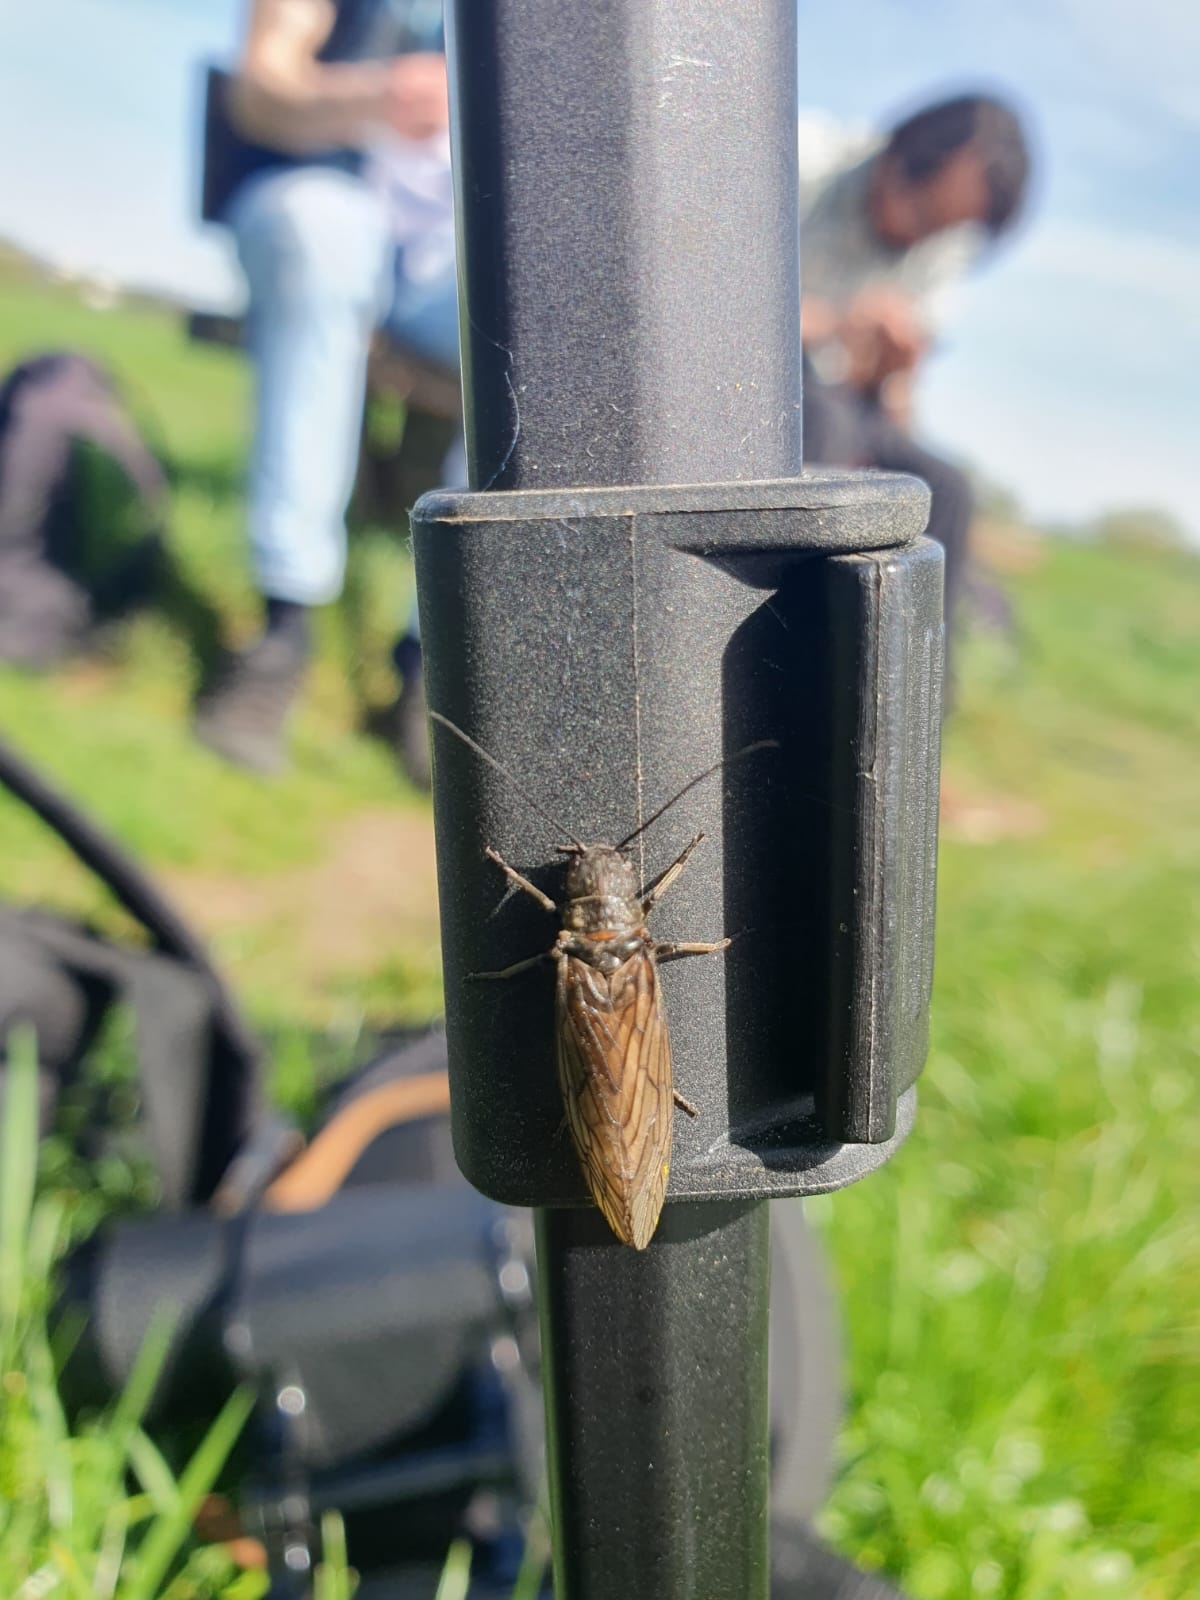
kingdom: Animalia
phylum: Arthropoda
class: Insecta
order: Megaloptera
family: Sialidae
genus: Sialis
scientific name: Sialis
